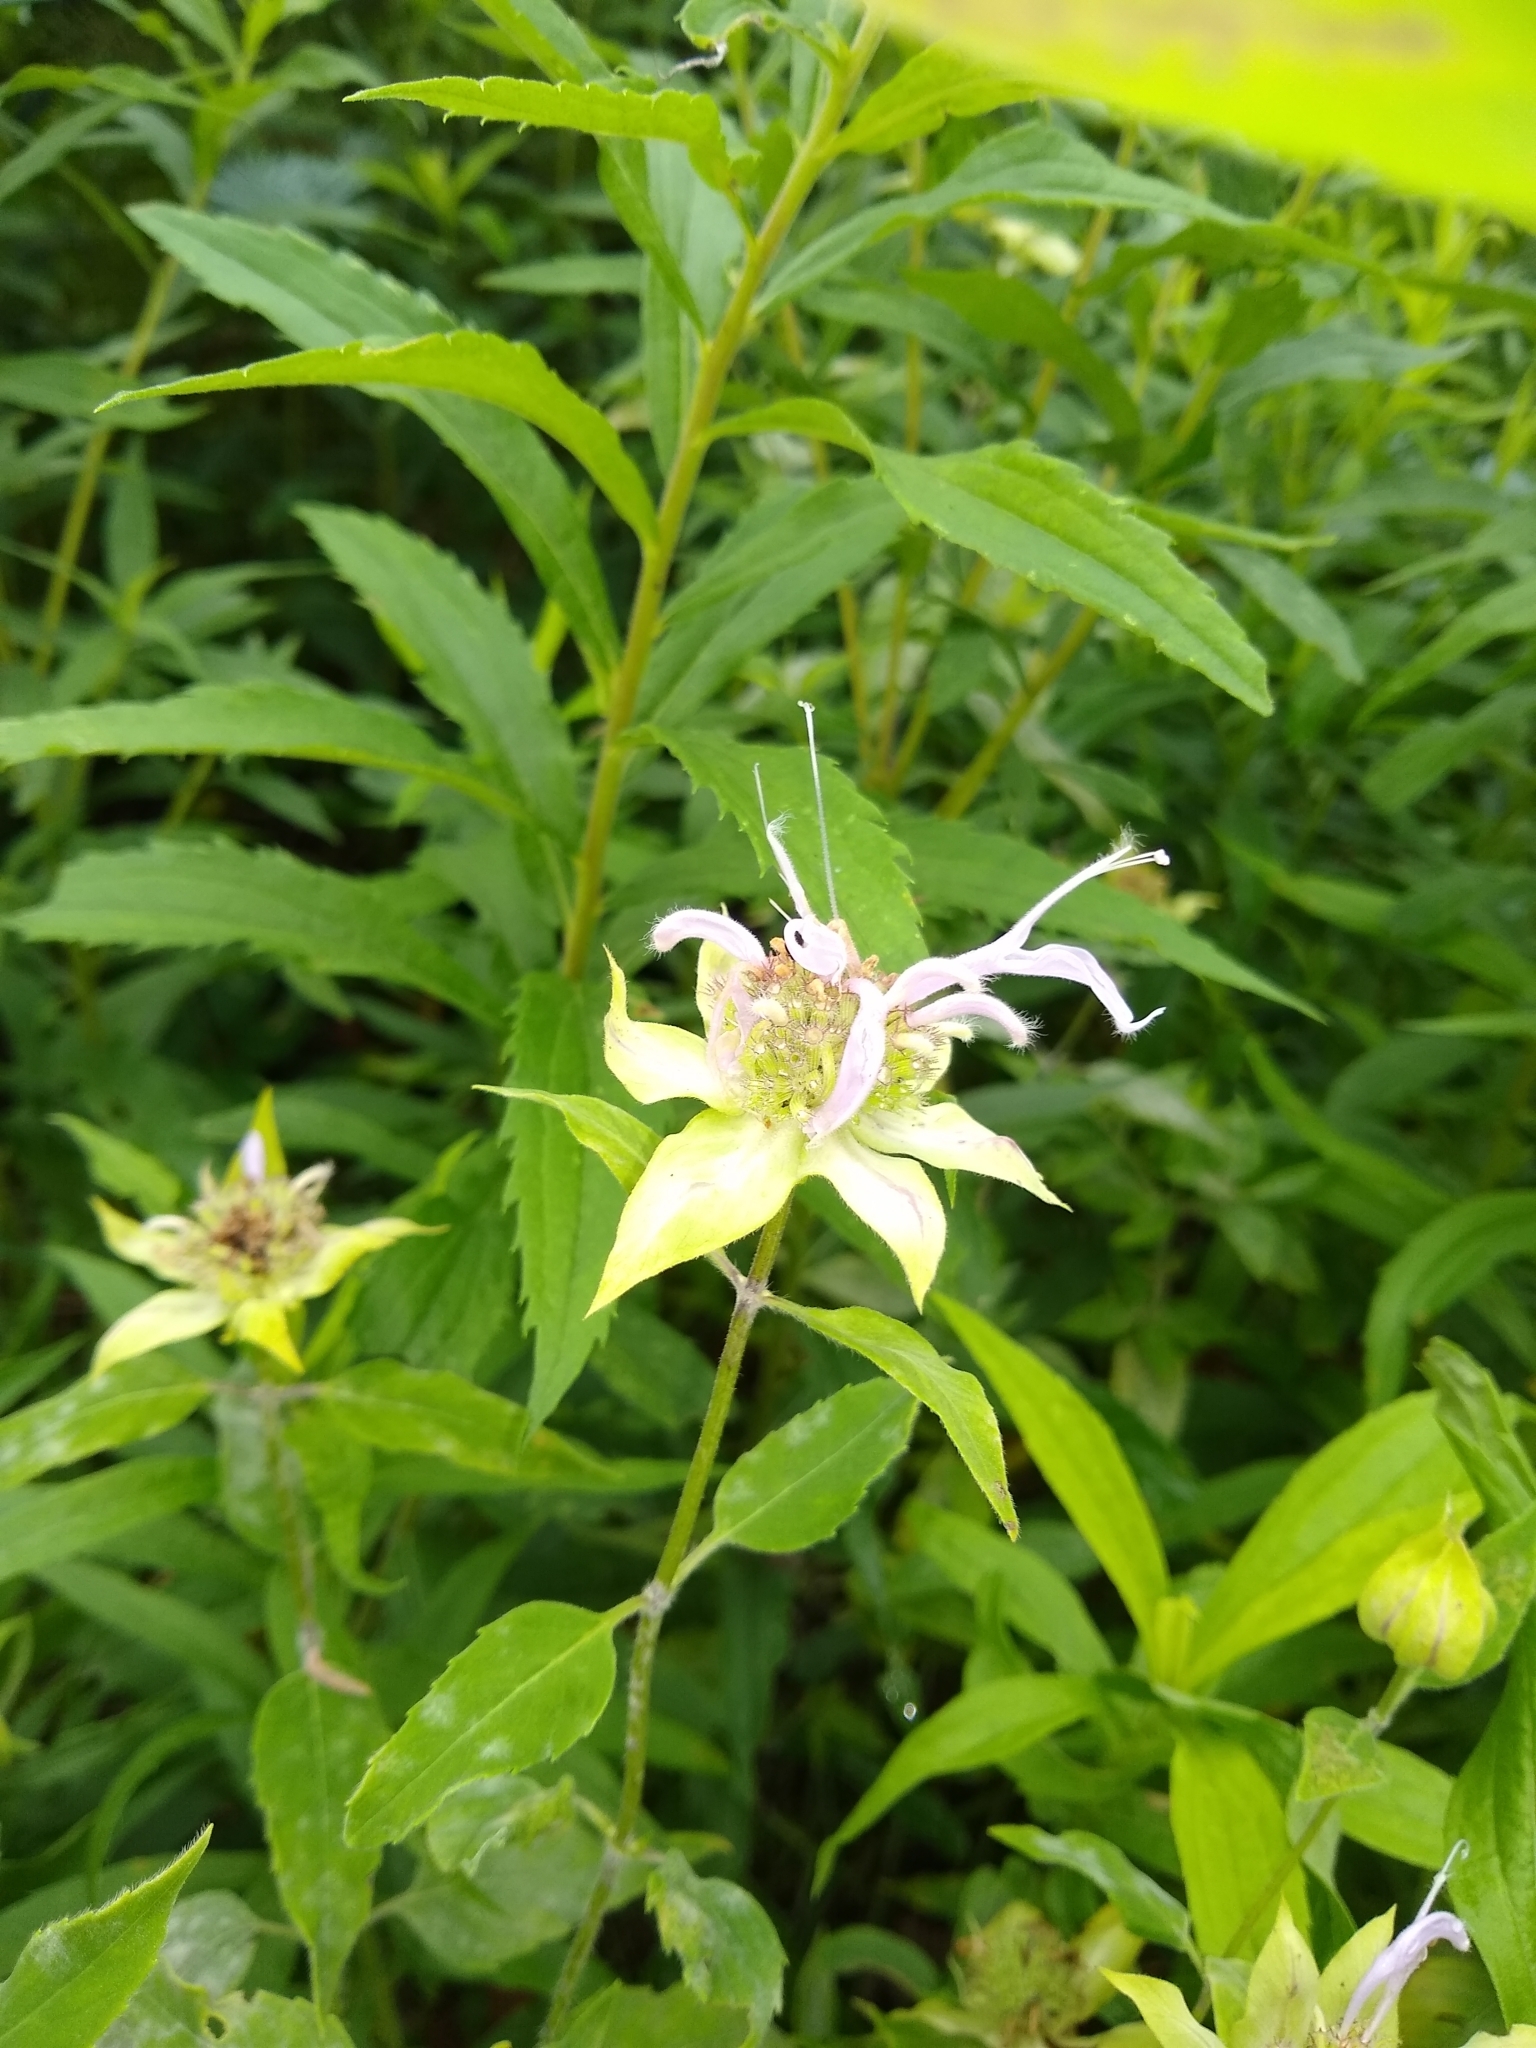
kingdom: Plantae
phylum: Tracheophyta
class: Magnoliopsida
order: Lamiales
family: Lamiaceae
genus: Monarda
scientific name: Monarda fistulosa
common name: Purple beebalm
